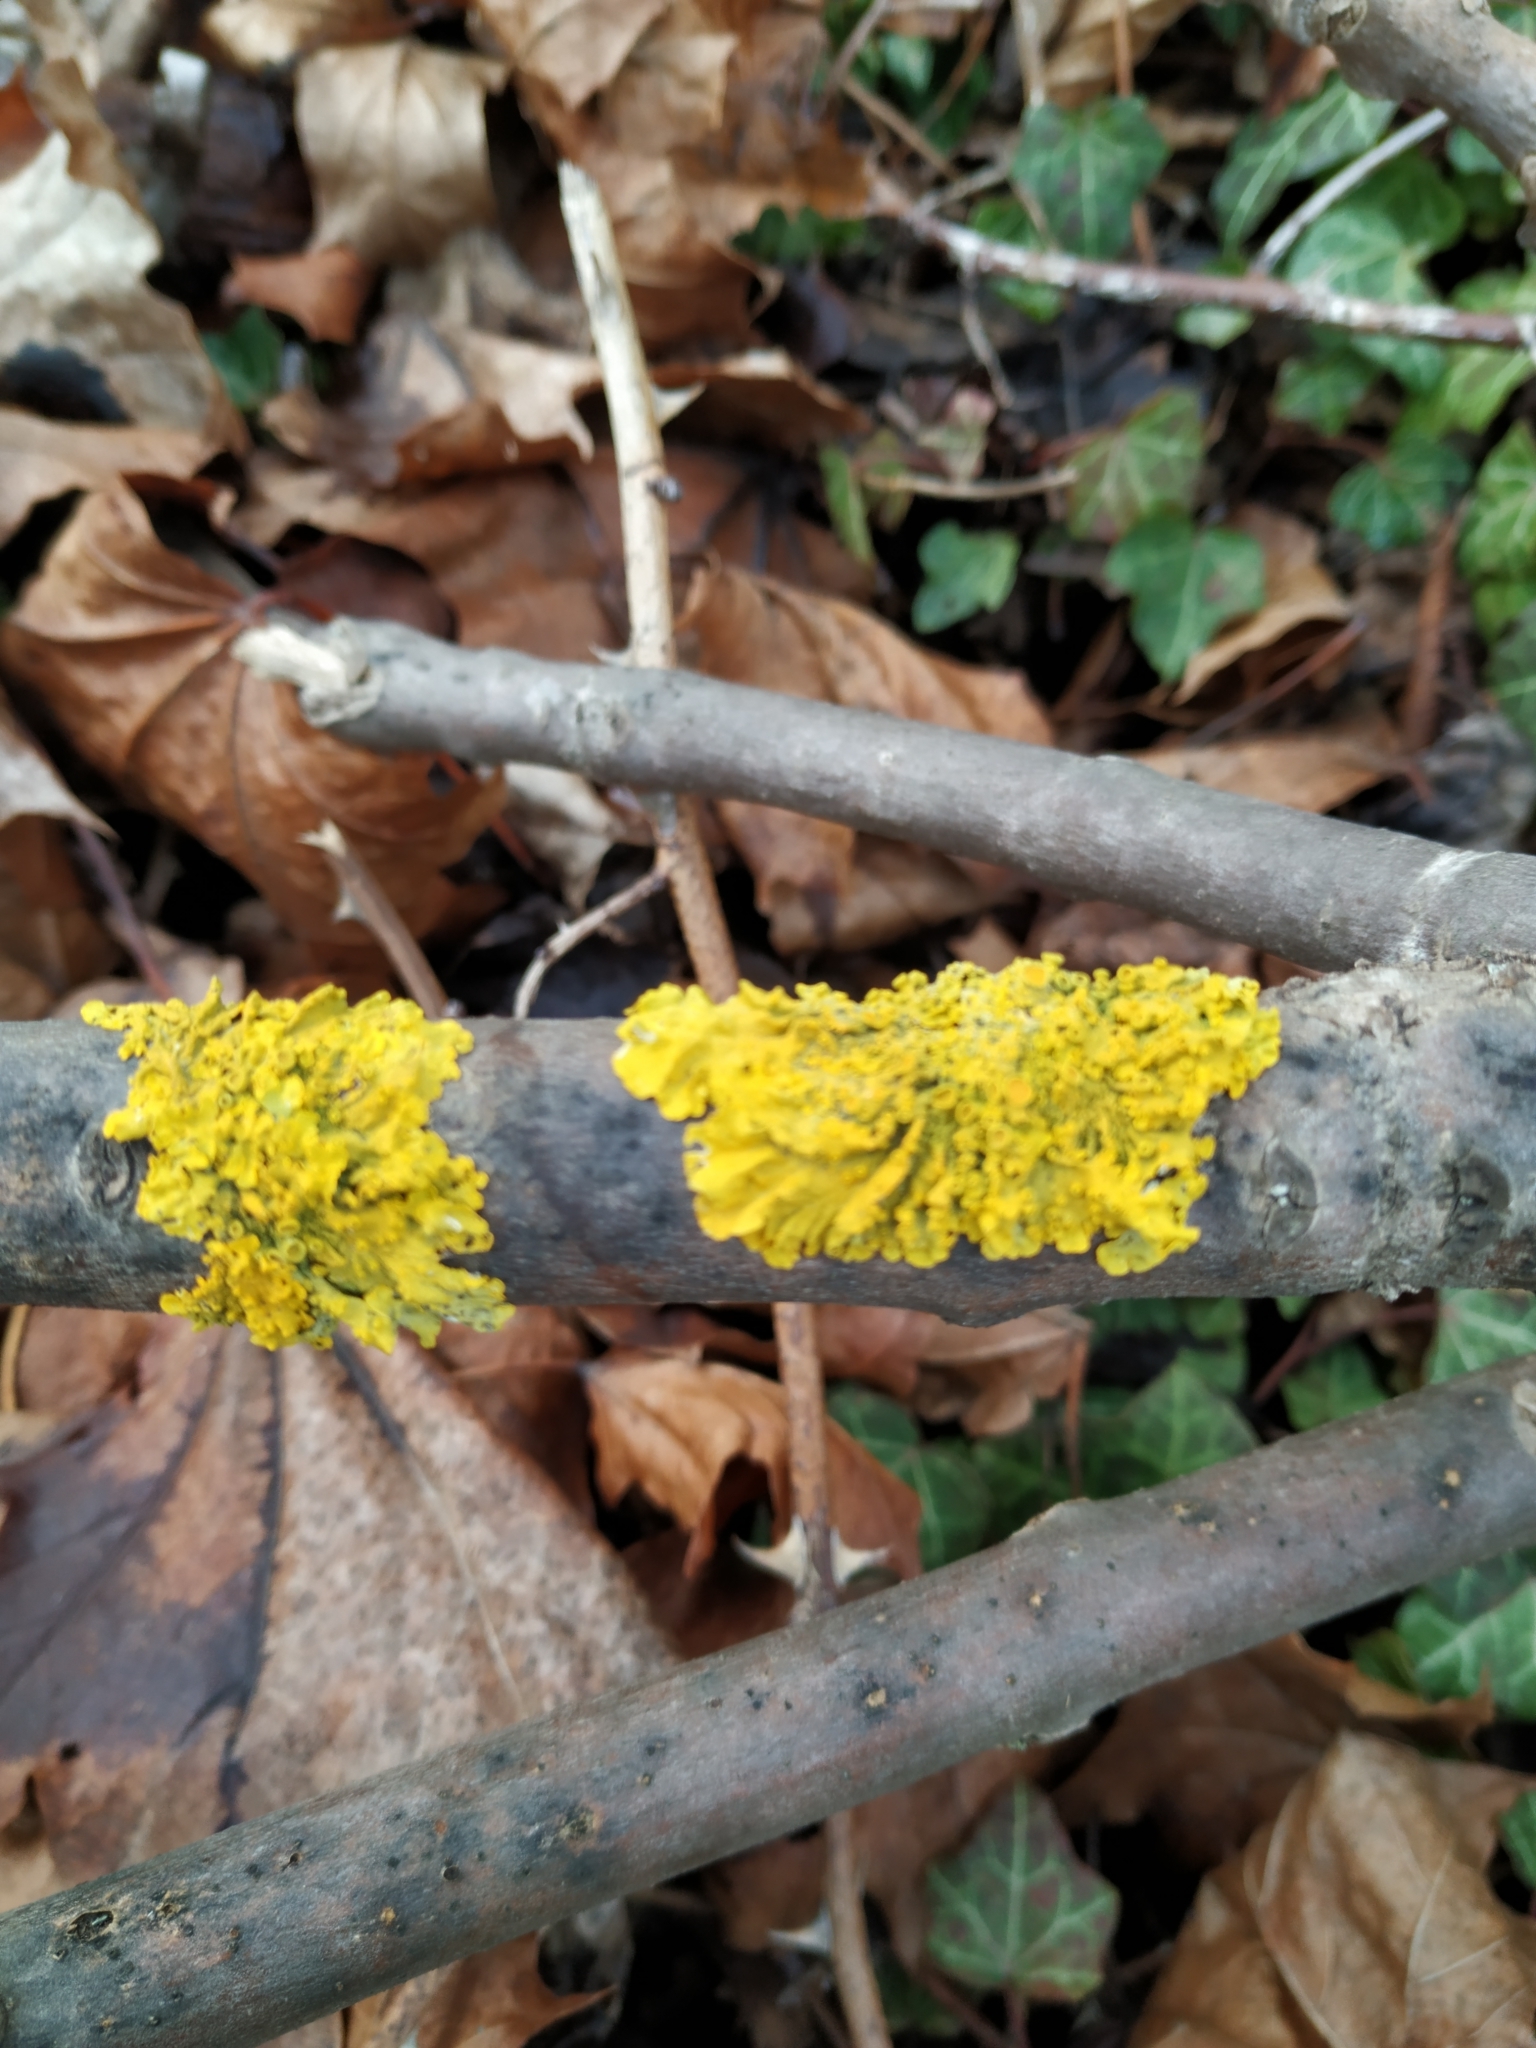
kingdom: Fungi
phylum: Ascomycota
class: Lecanoromycetes
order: Teloschistales
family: Teloschistaceae
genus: Xanthoria
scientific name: Xanthoria parietina
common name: Common orange lichen
